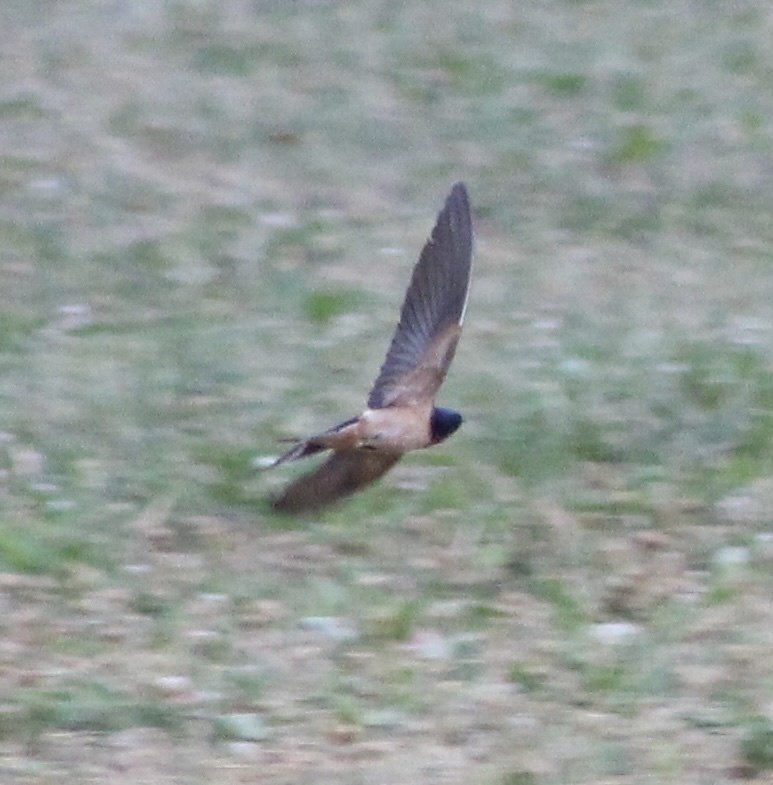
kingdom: Animalia
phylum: Chordata
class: Aves
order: Passeriformes
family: Hirundinidae
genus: Hirundo
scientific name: Hirundo rustica
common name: Barn swallow
